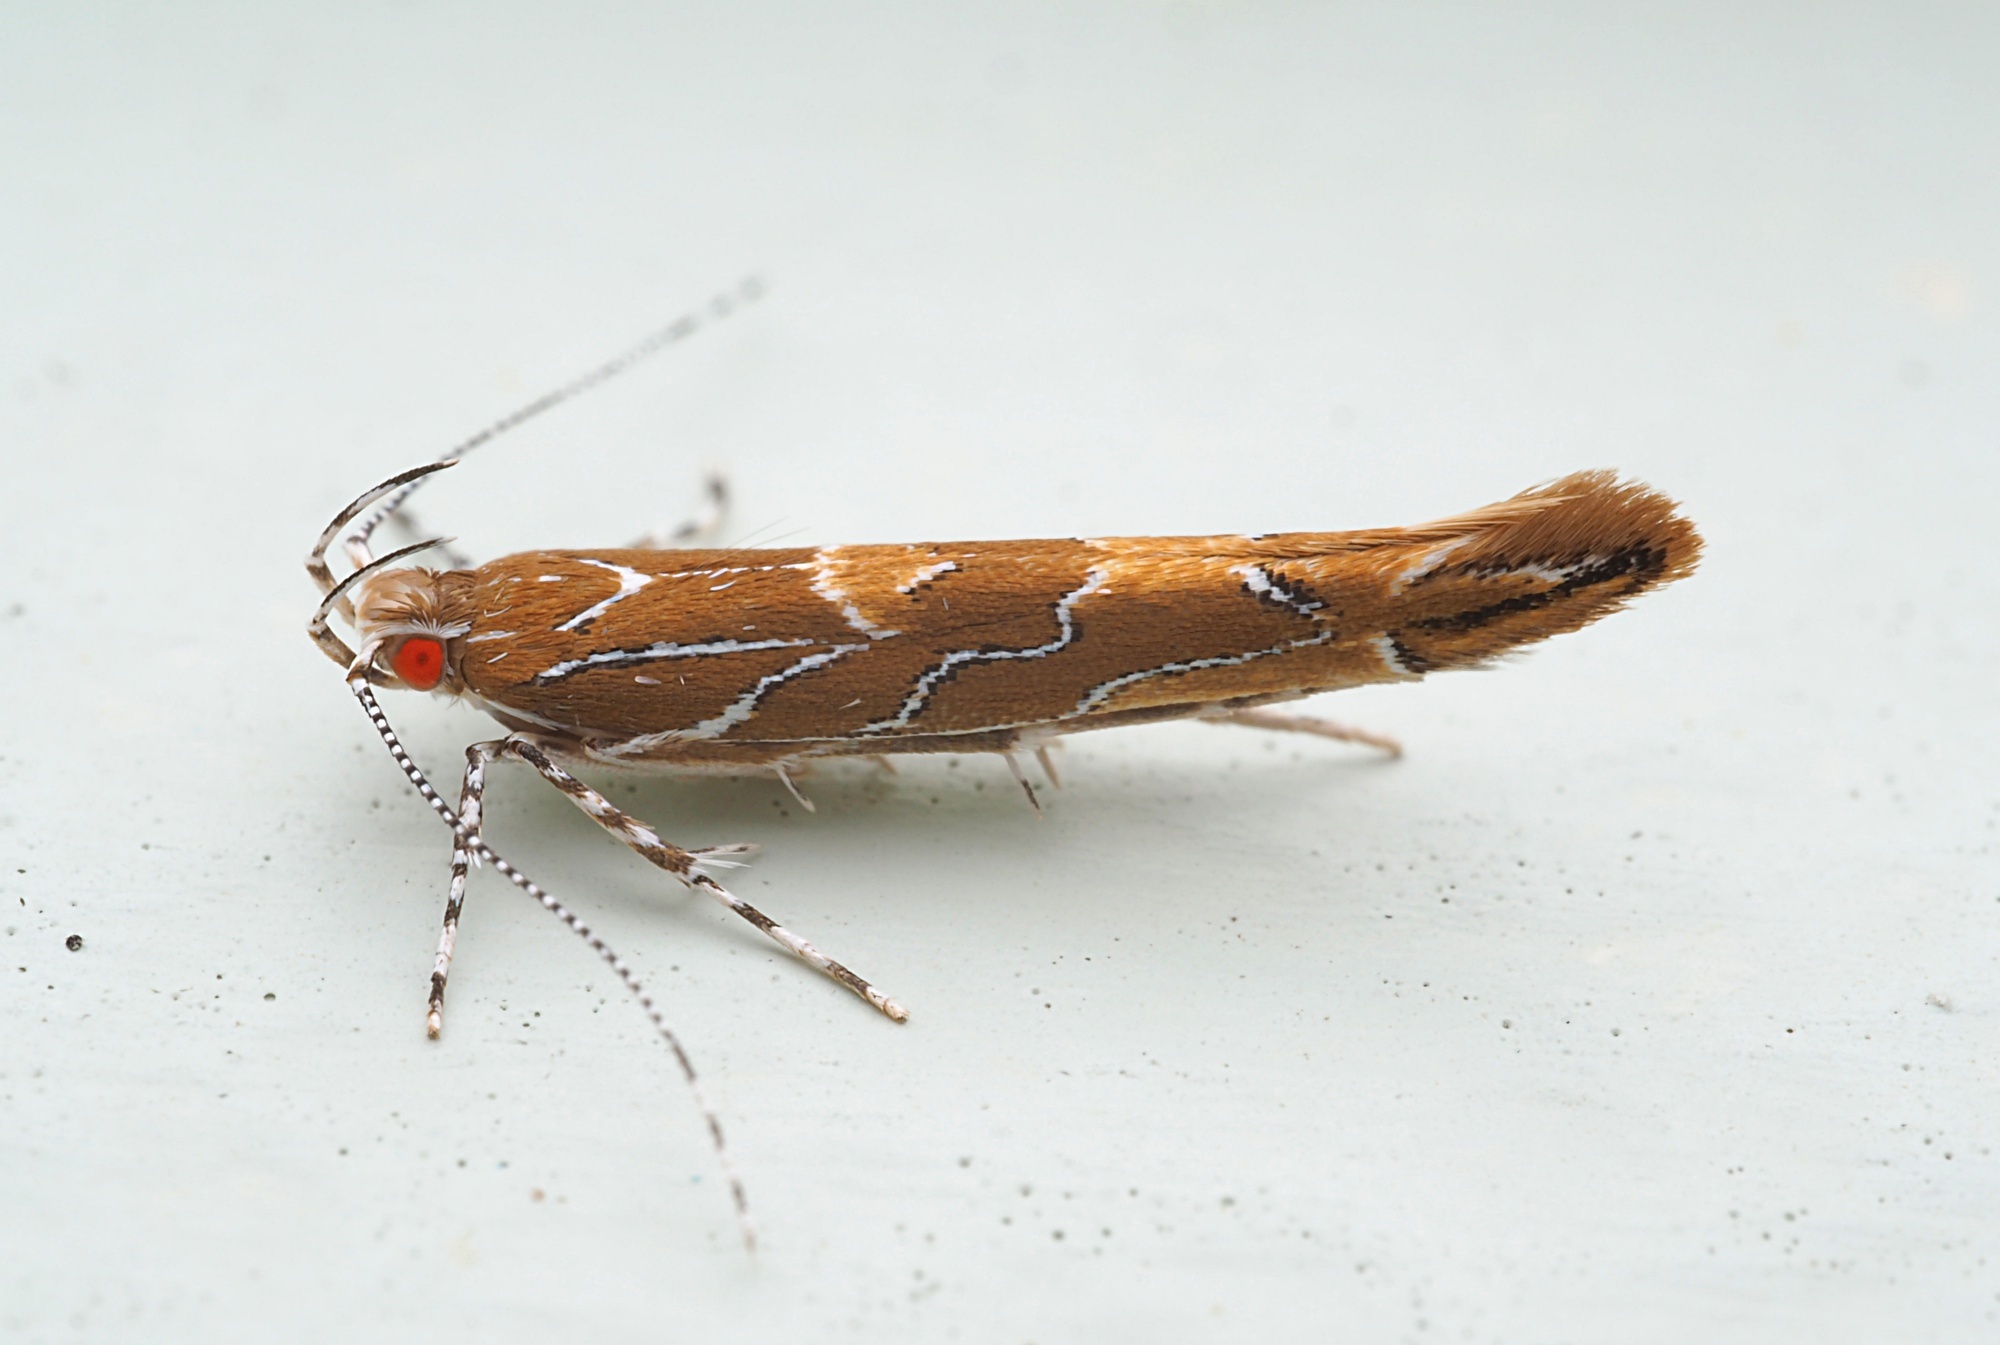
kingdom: Animalia
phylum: Arthropoda
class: Insecta
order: Lepidoptera
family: Cosmopterigidae
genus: Pyroderces
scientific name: Pyroderces apparitella
